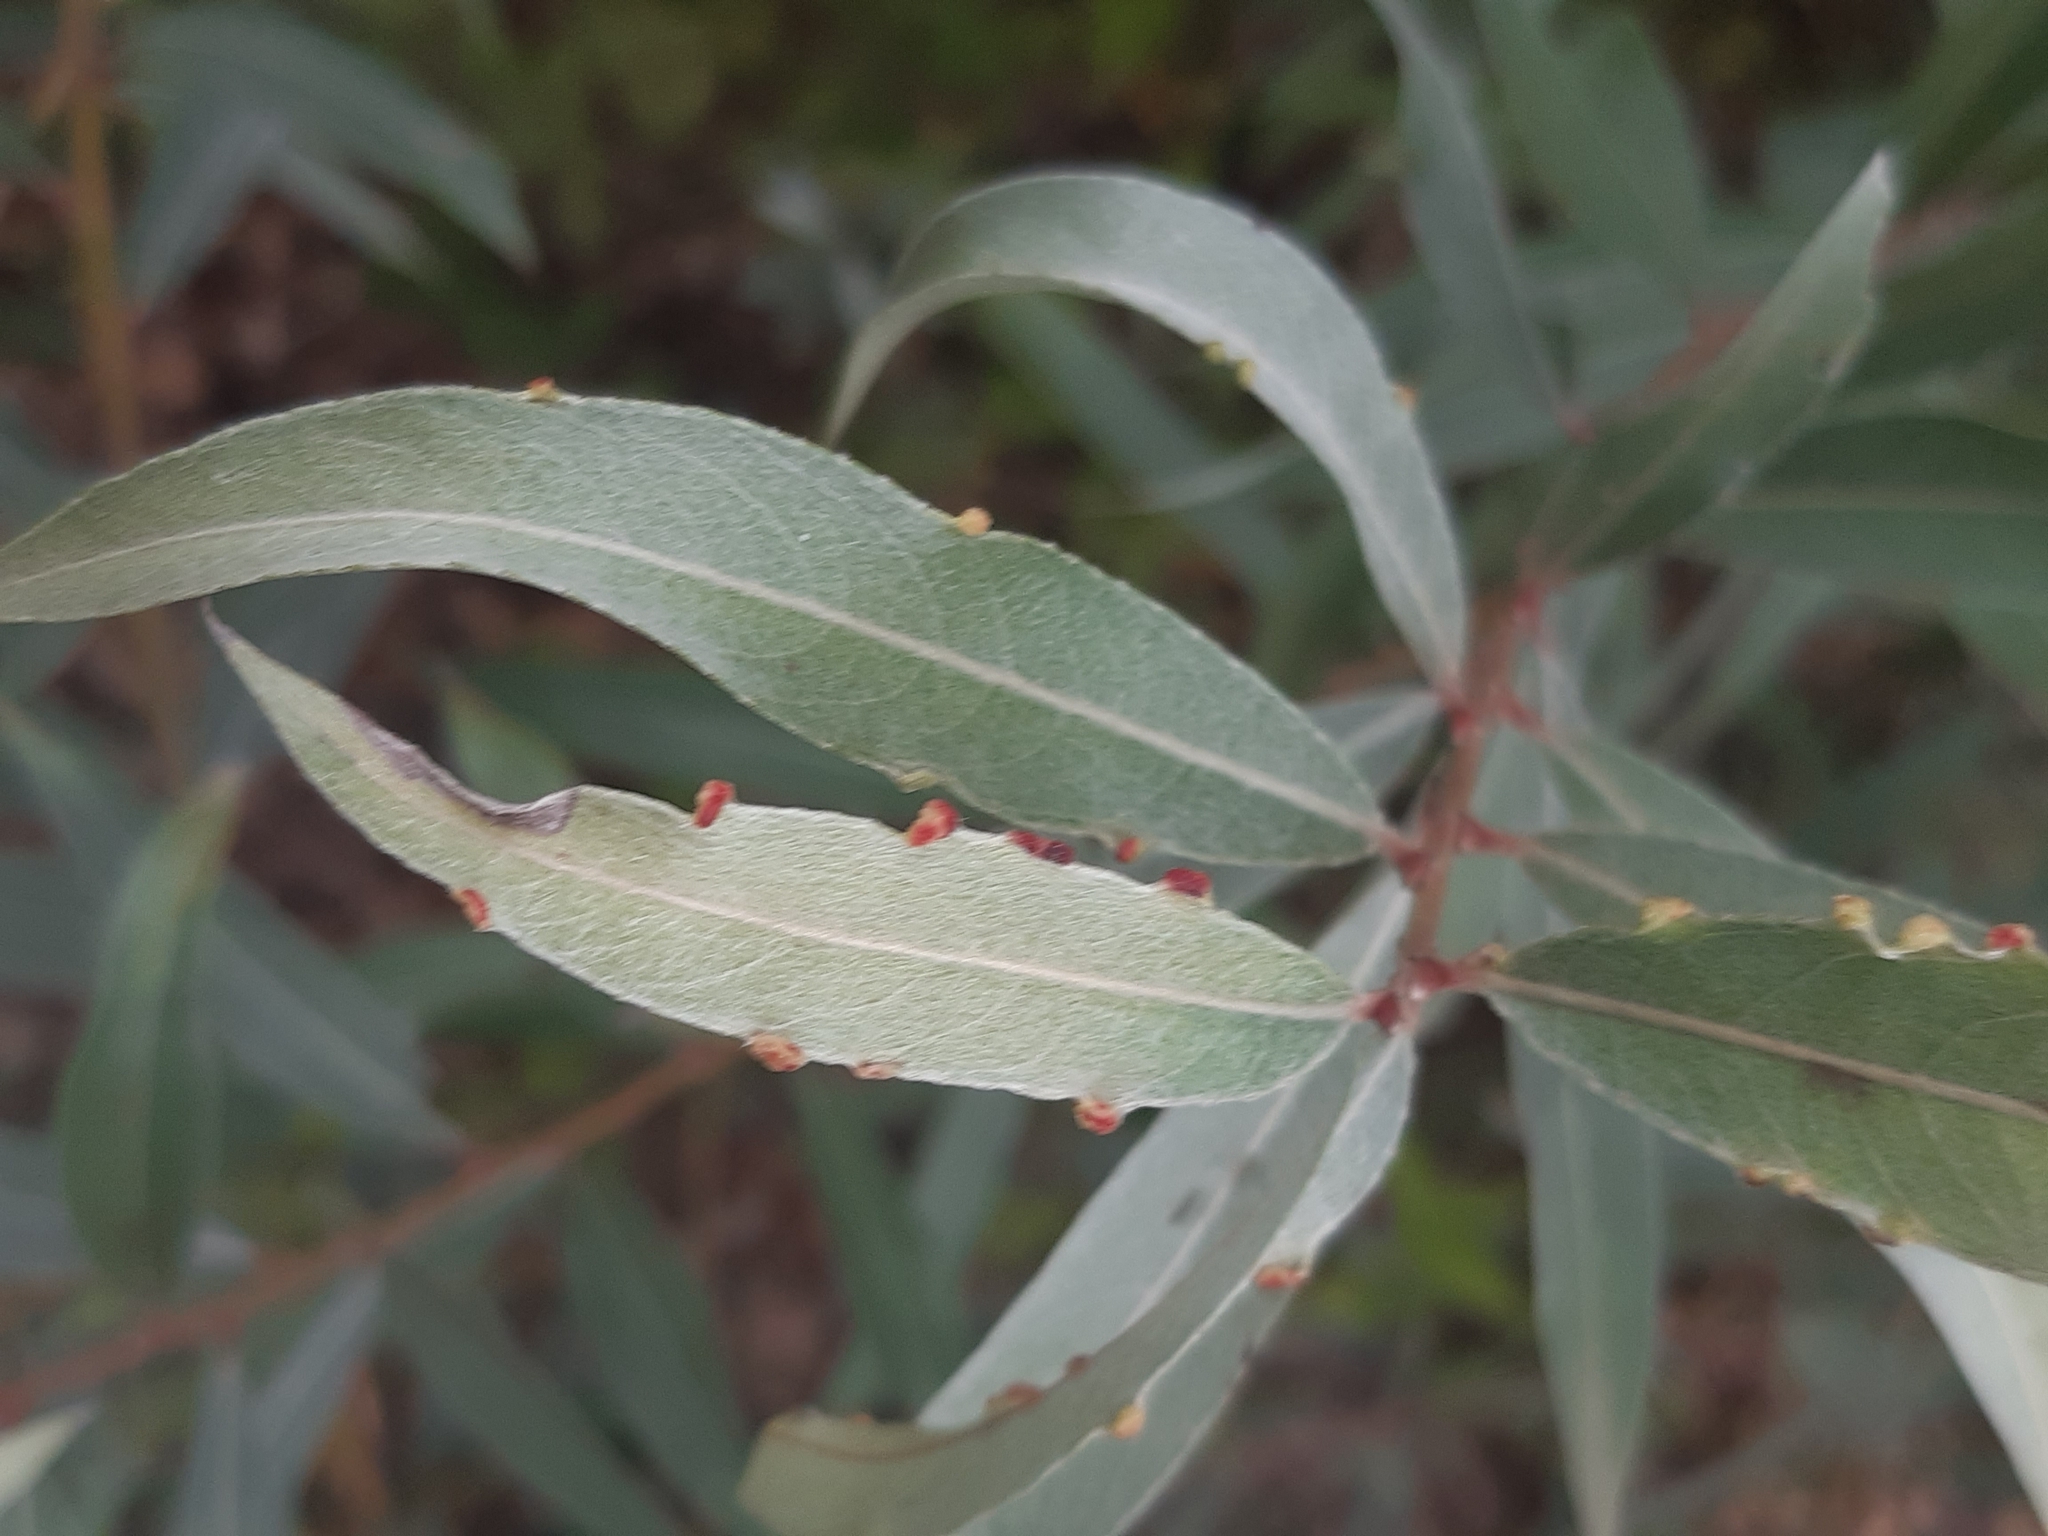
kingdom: Animalia
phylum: Arthropoda
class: Arachnida
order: Trombidiformes
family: Eriophyidae
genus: Aculus
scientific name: Aculus craspedobius
